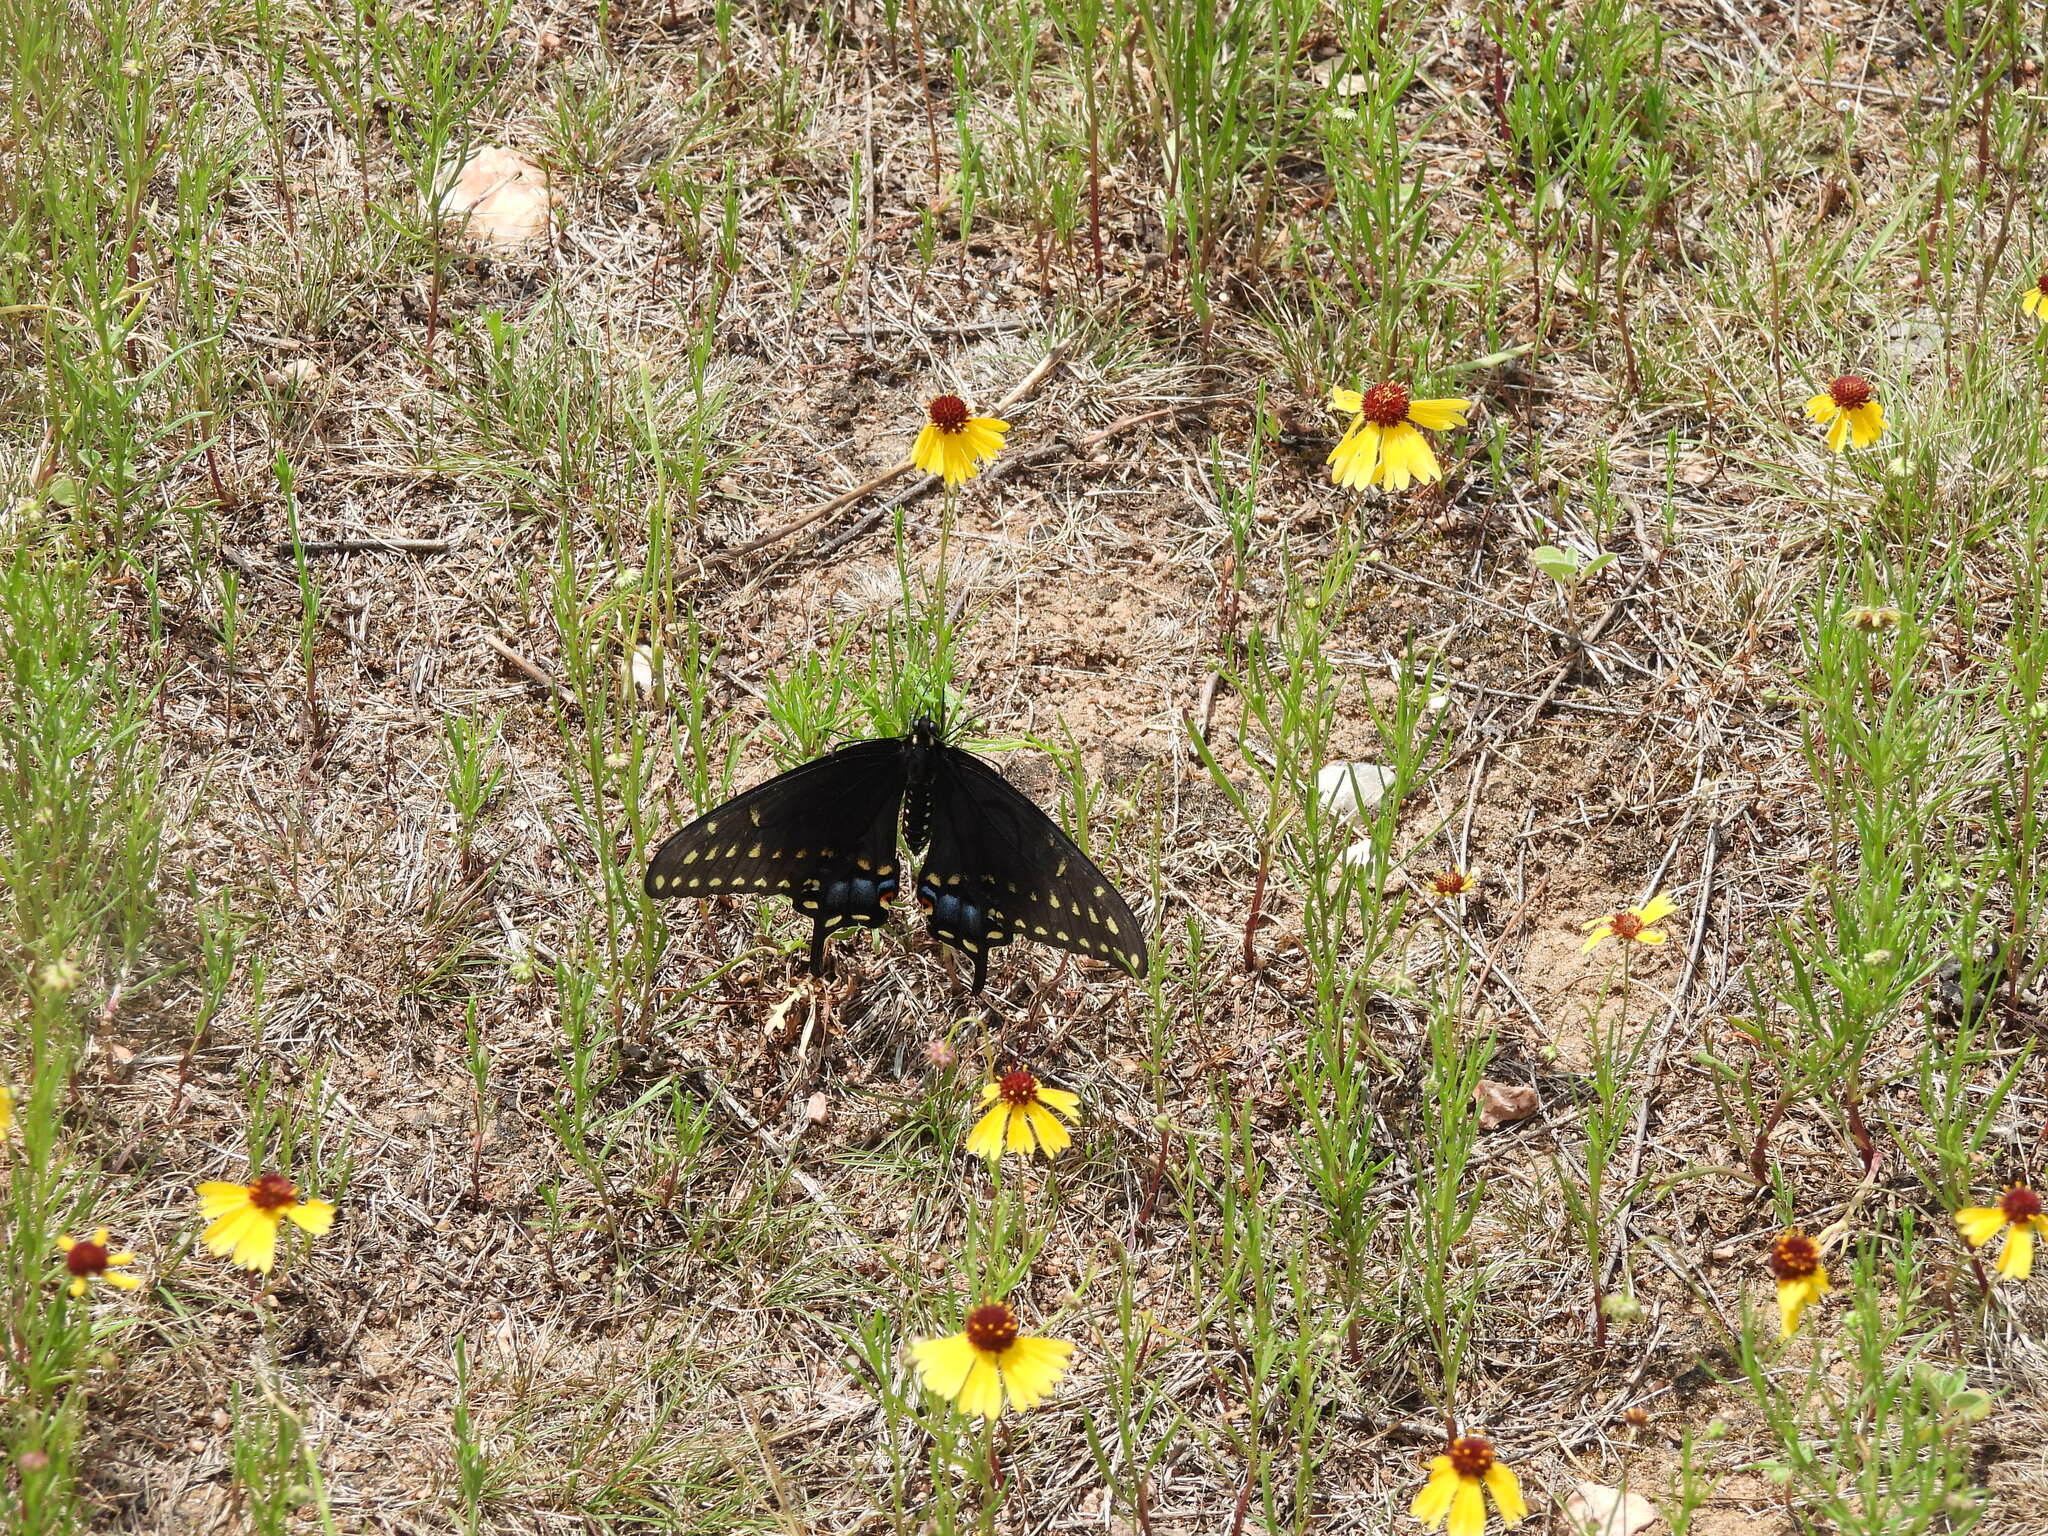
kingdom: Animalia
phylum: Arthropoda
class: Insecta
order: Lepidoptera
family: Papilionidae
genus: Papilio
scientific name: Papilio polyxenes
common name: Black swallowtail
